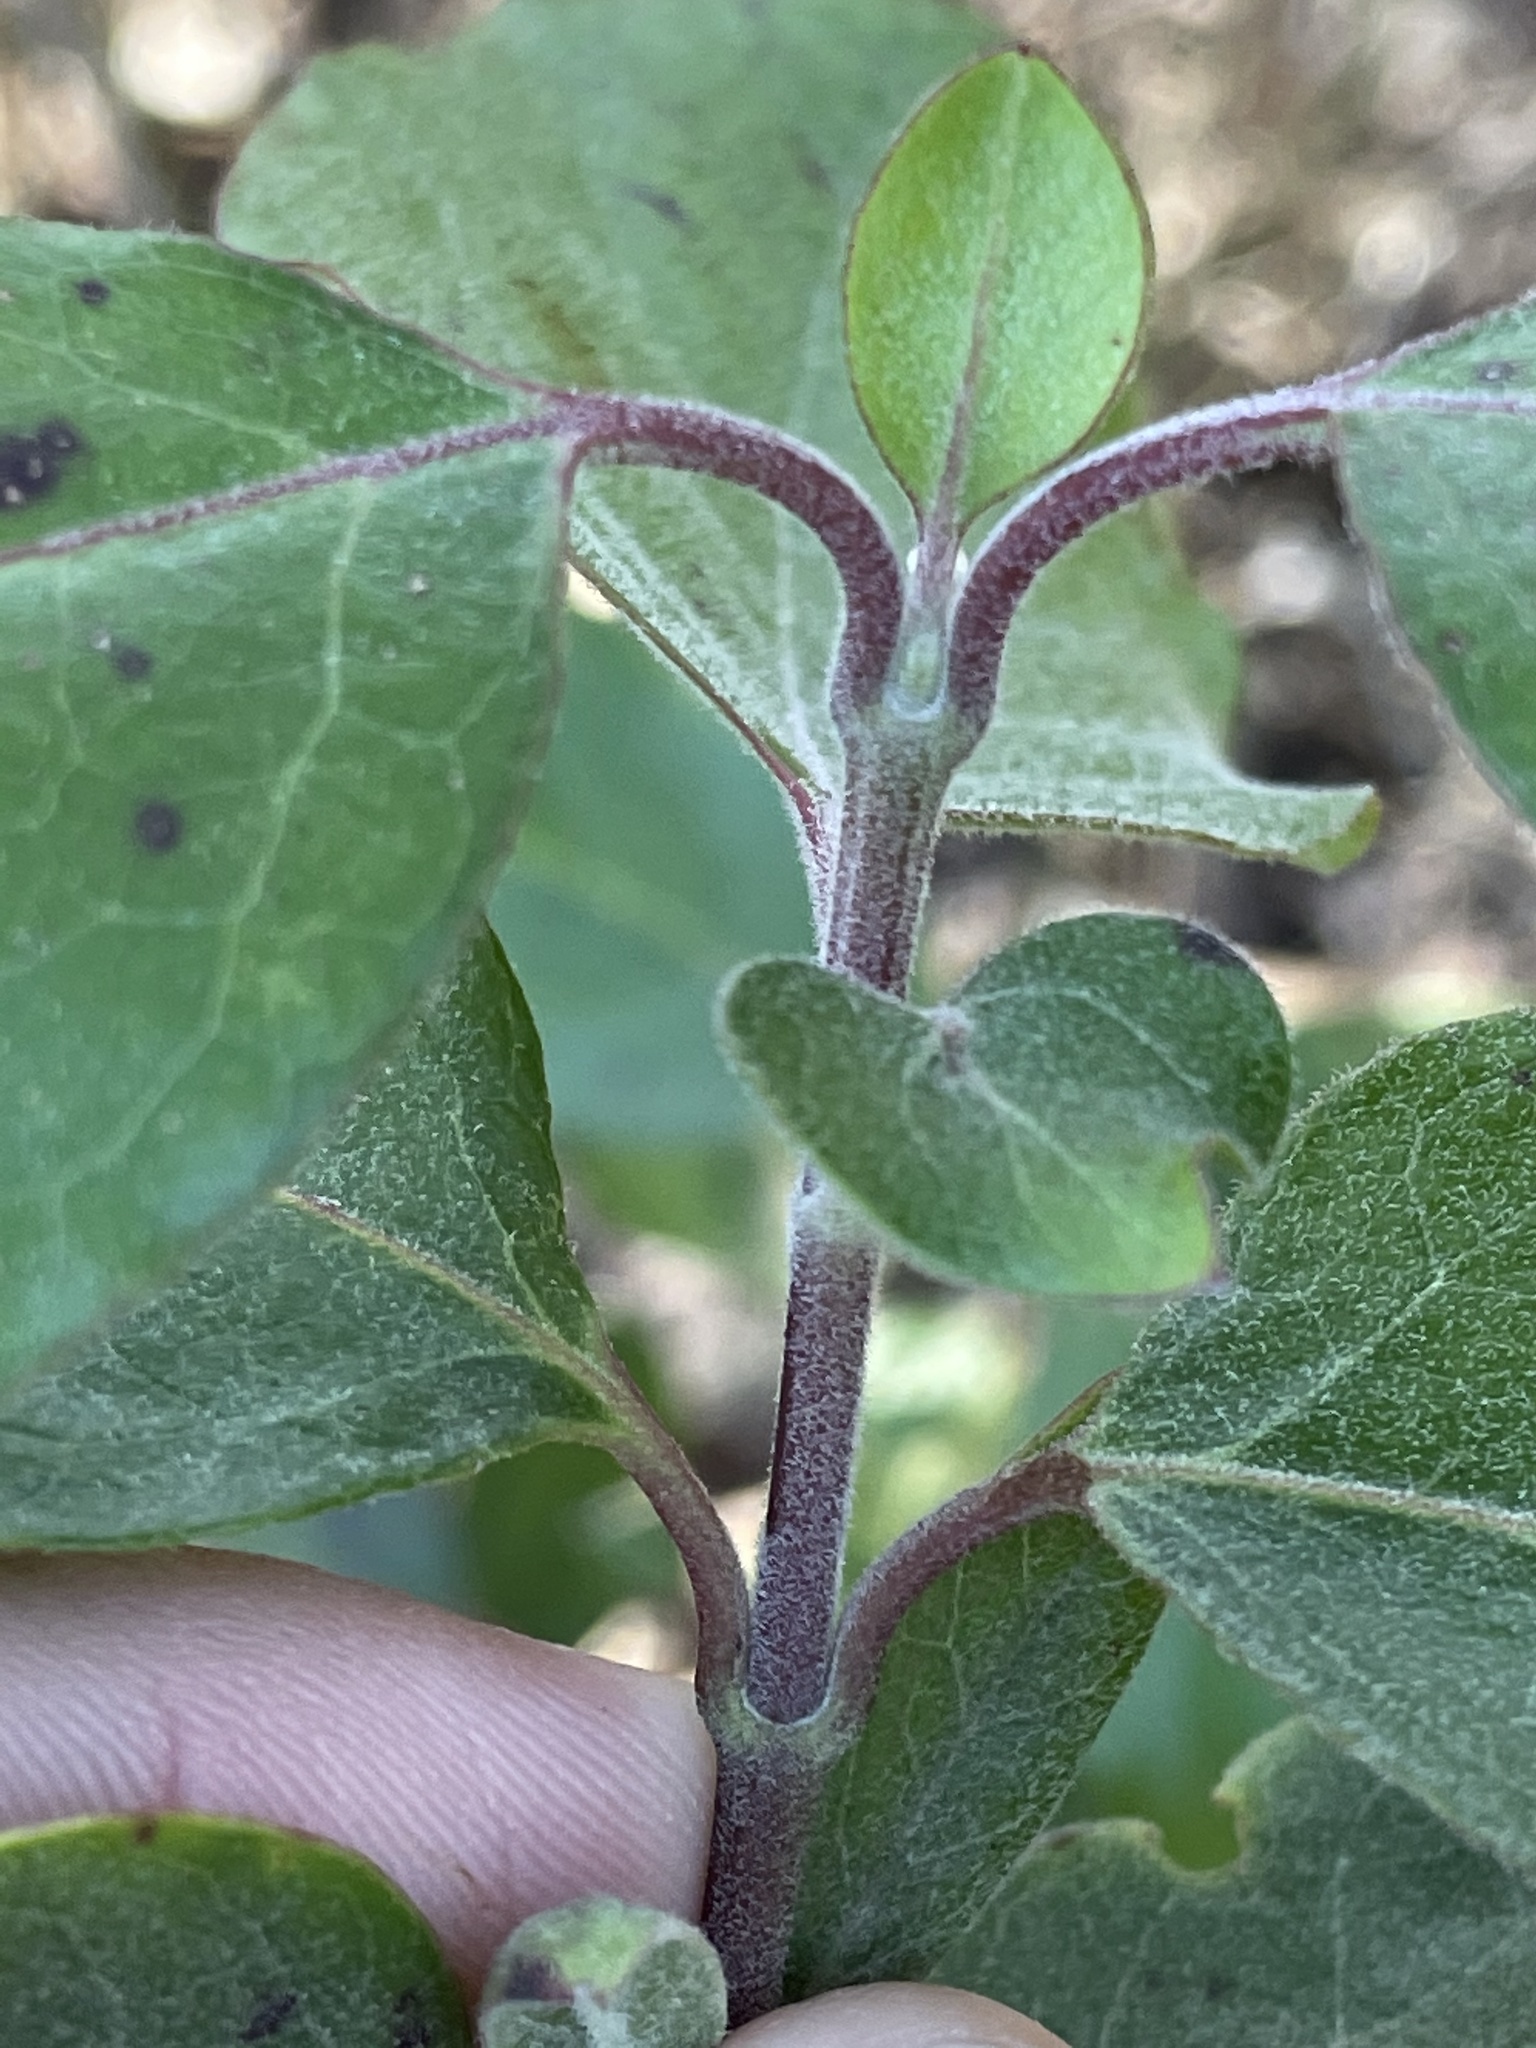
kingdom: Plantae
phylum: Tracheophyta
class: Magnoliopsida
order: Garryales
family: Garryaceae
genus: Garrya
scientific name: Garrya lindheimeri
